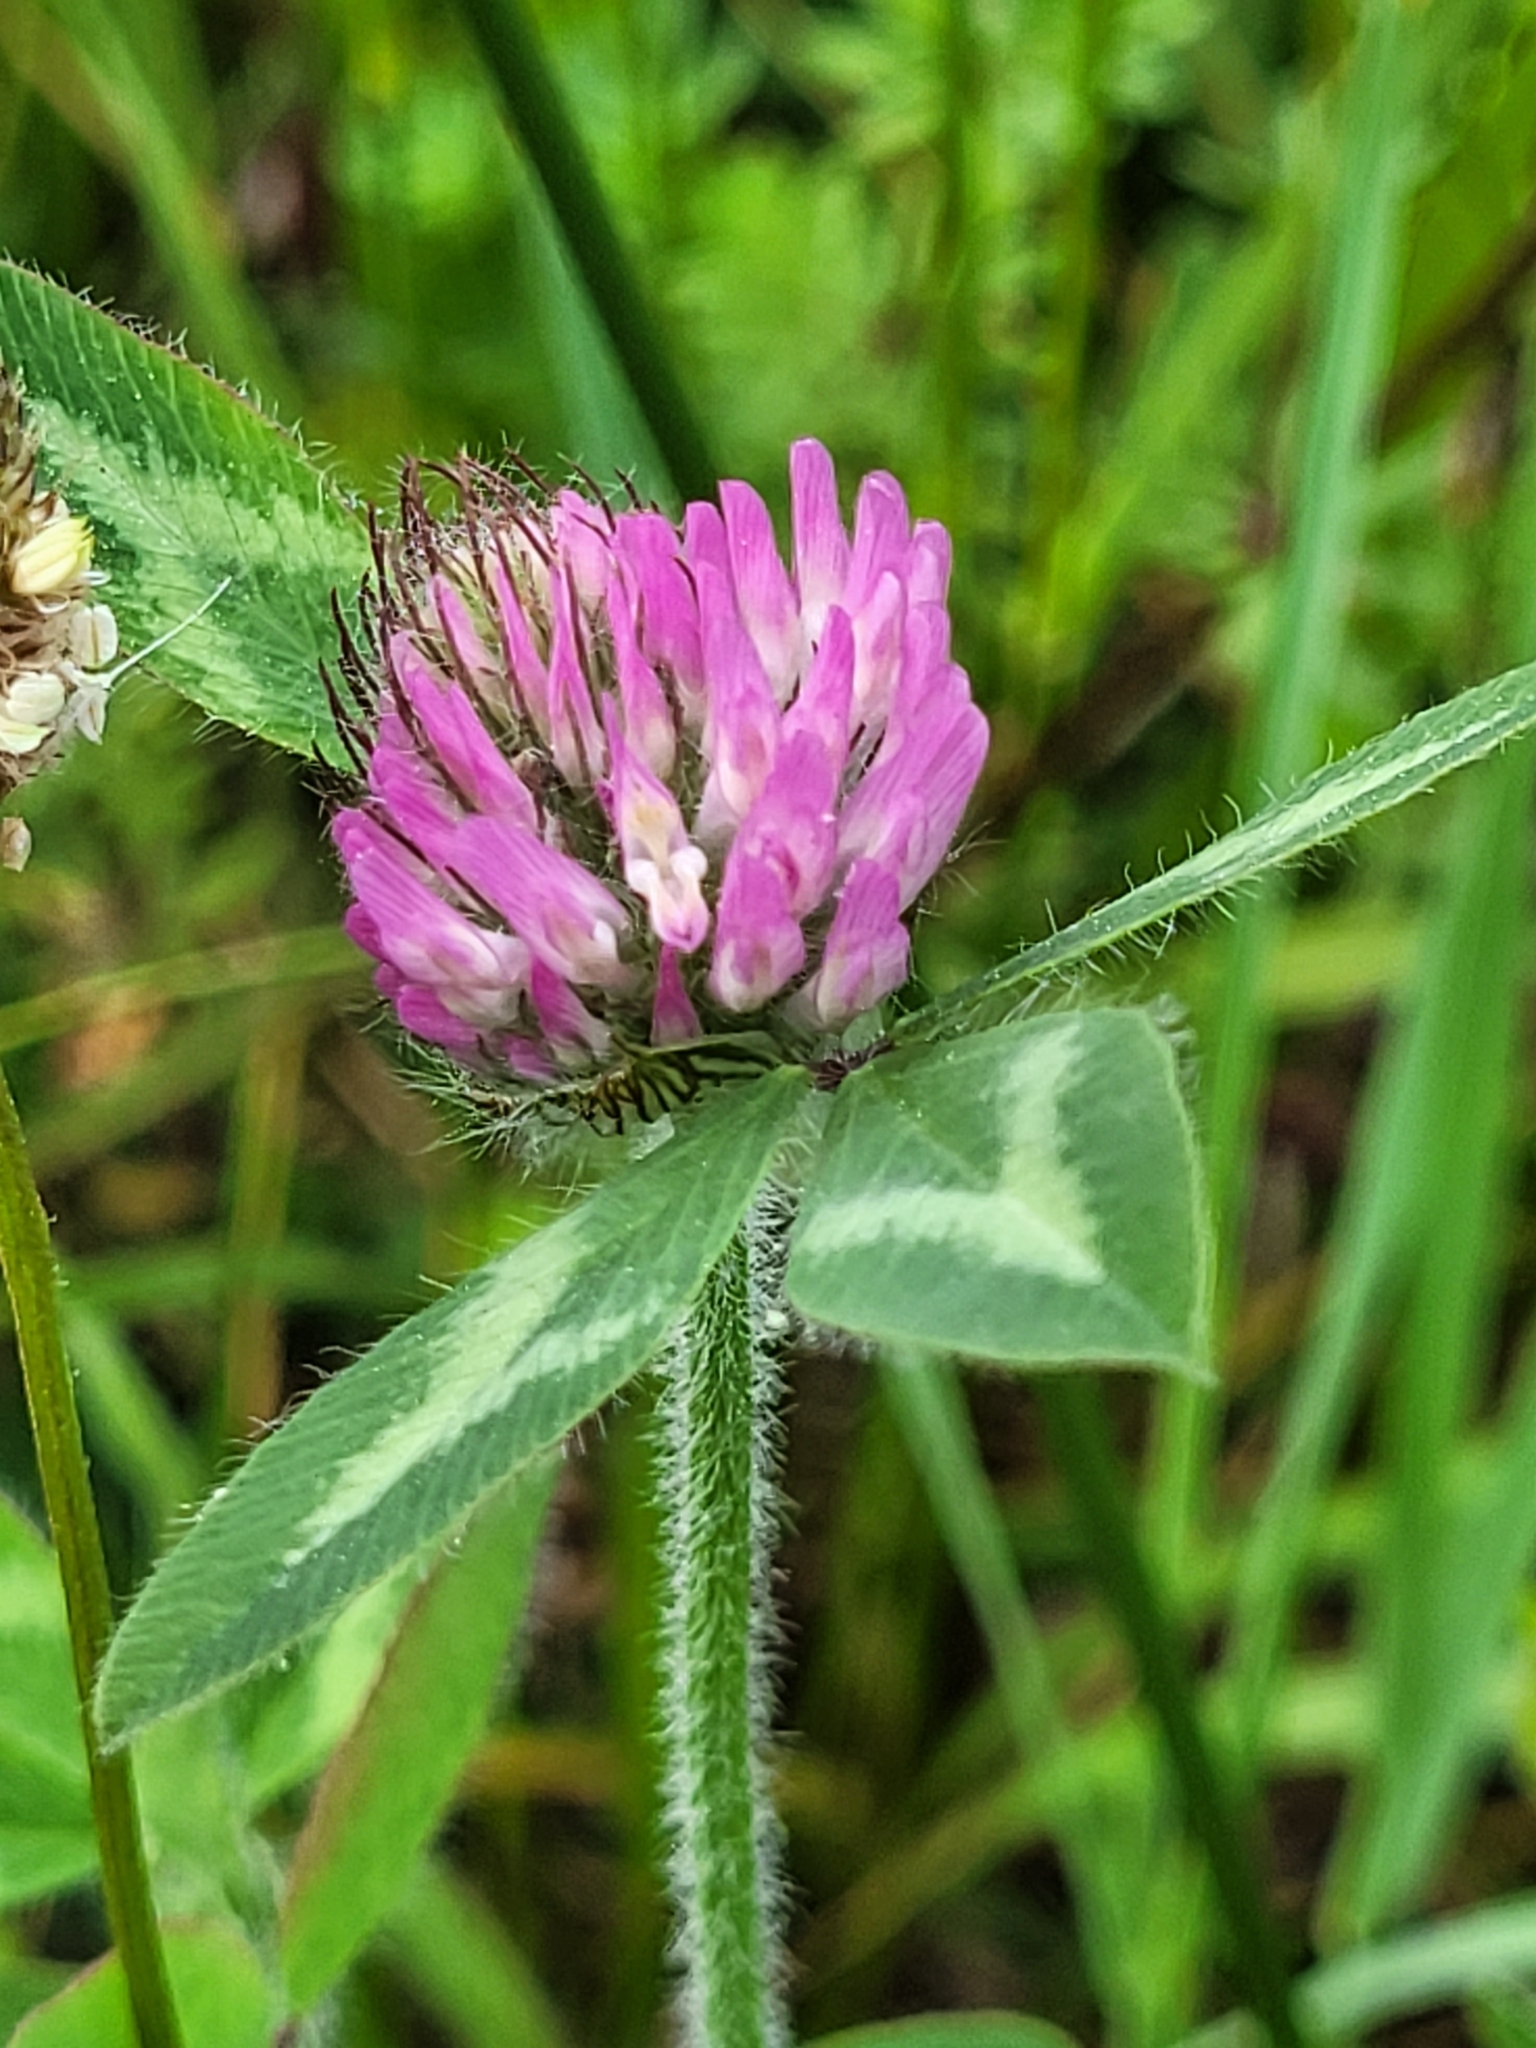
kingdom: Plantae
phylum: Tracheophyta
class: Magnoliopsida
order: Fabales
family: Fabaceae
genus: Trifolium
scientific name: Trifolium pratense
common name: Red clover
